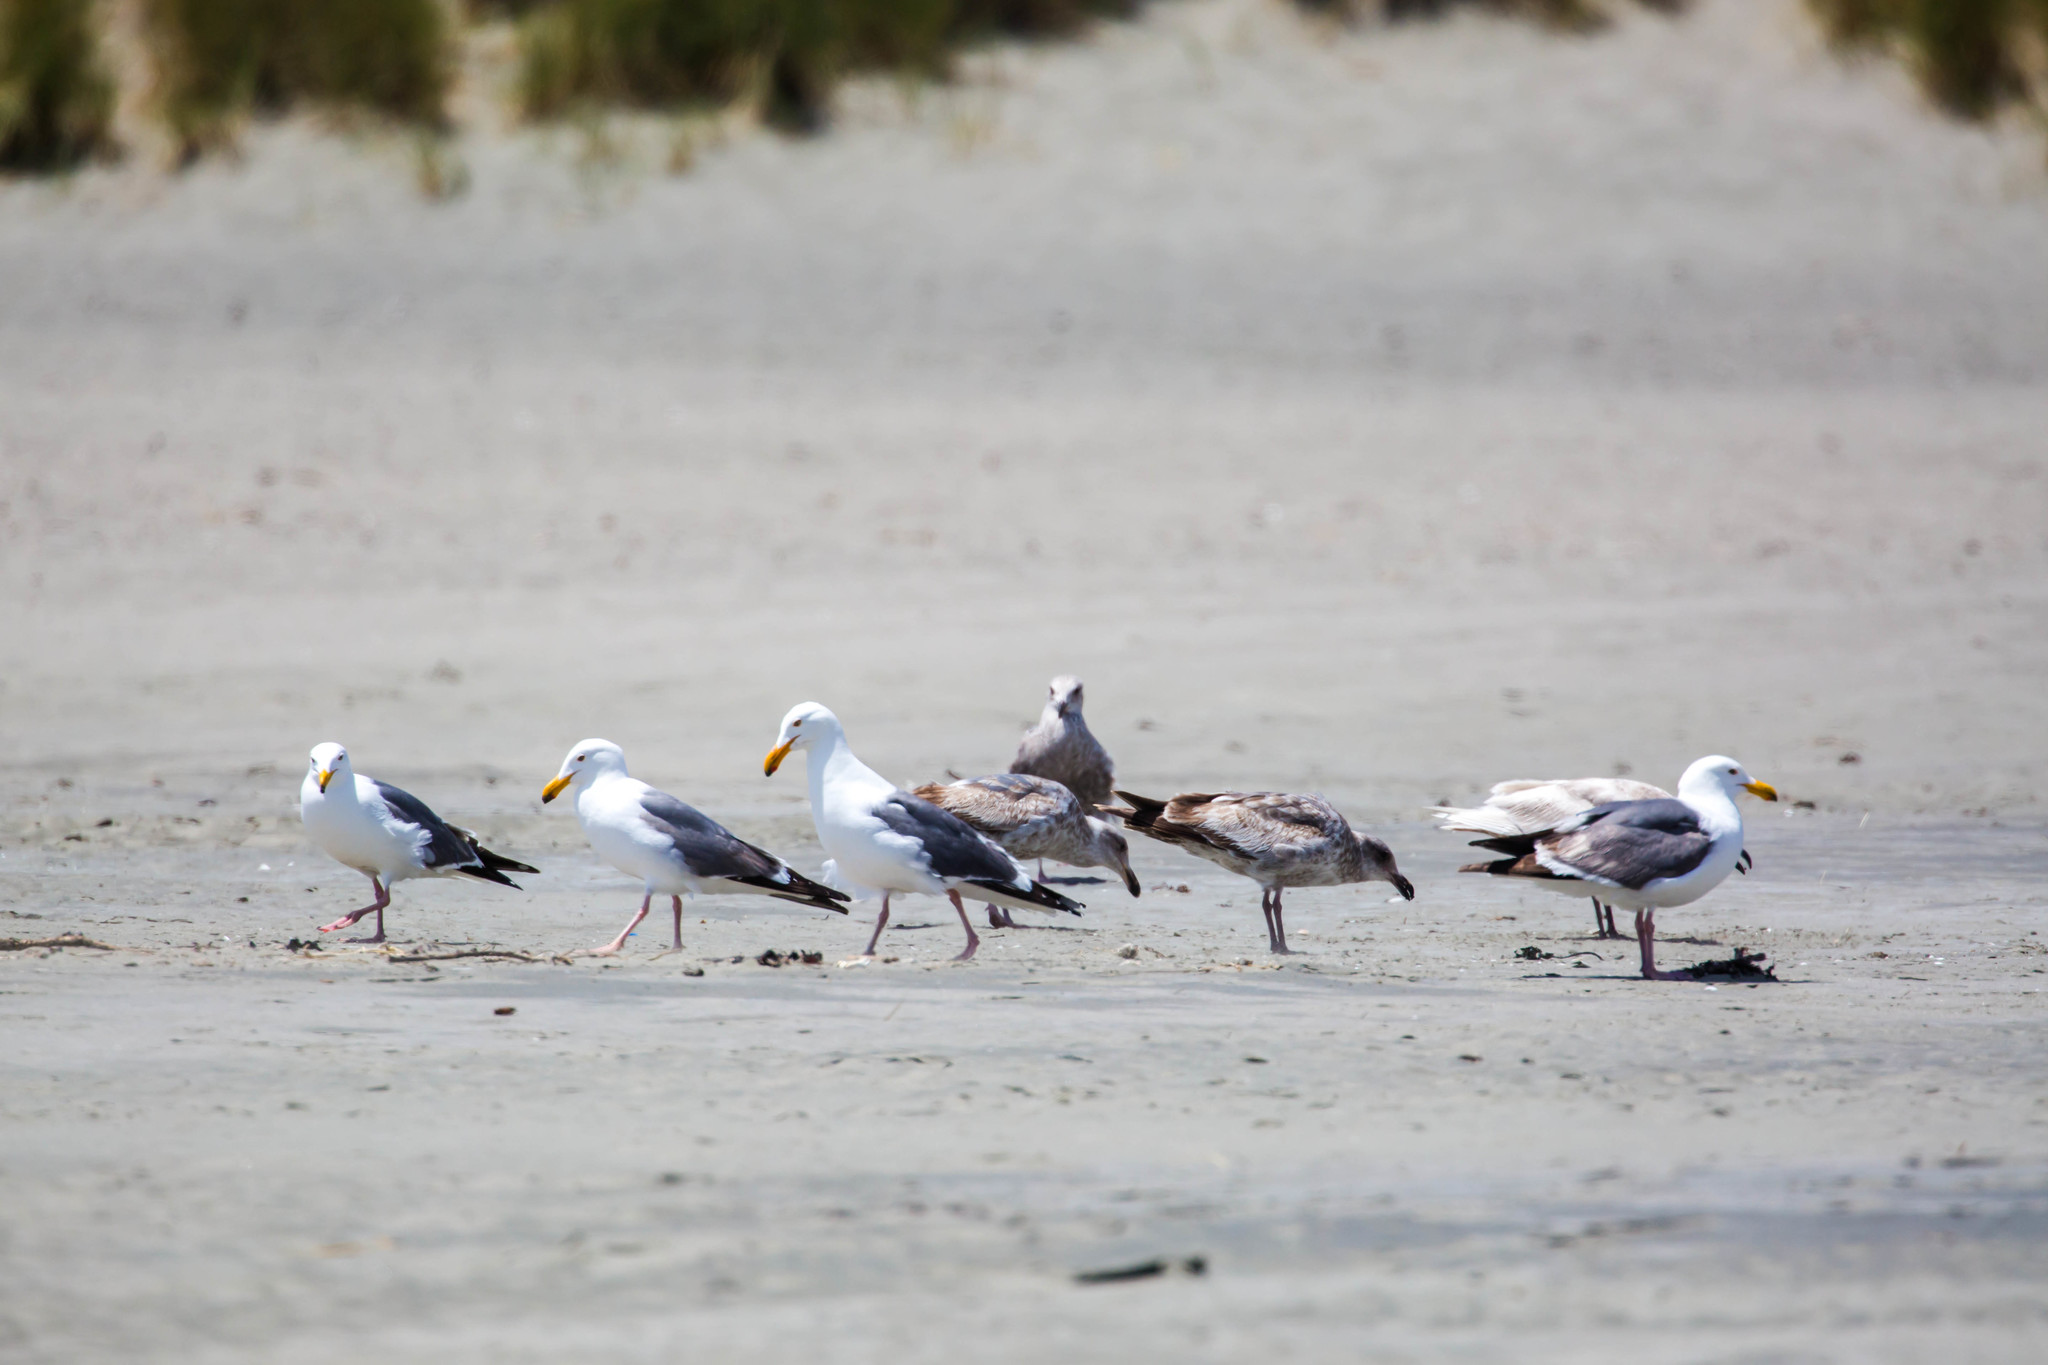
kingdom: Animalia
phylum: Chordata
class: Aves
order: Charadriiformes
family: Laridae
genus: Larus
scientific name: Larus occidentalis
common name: Western gull
